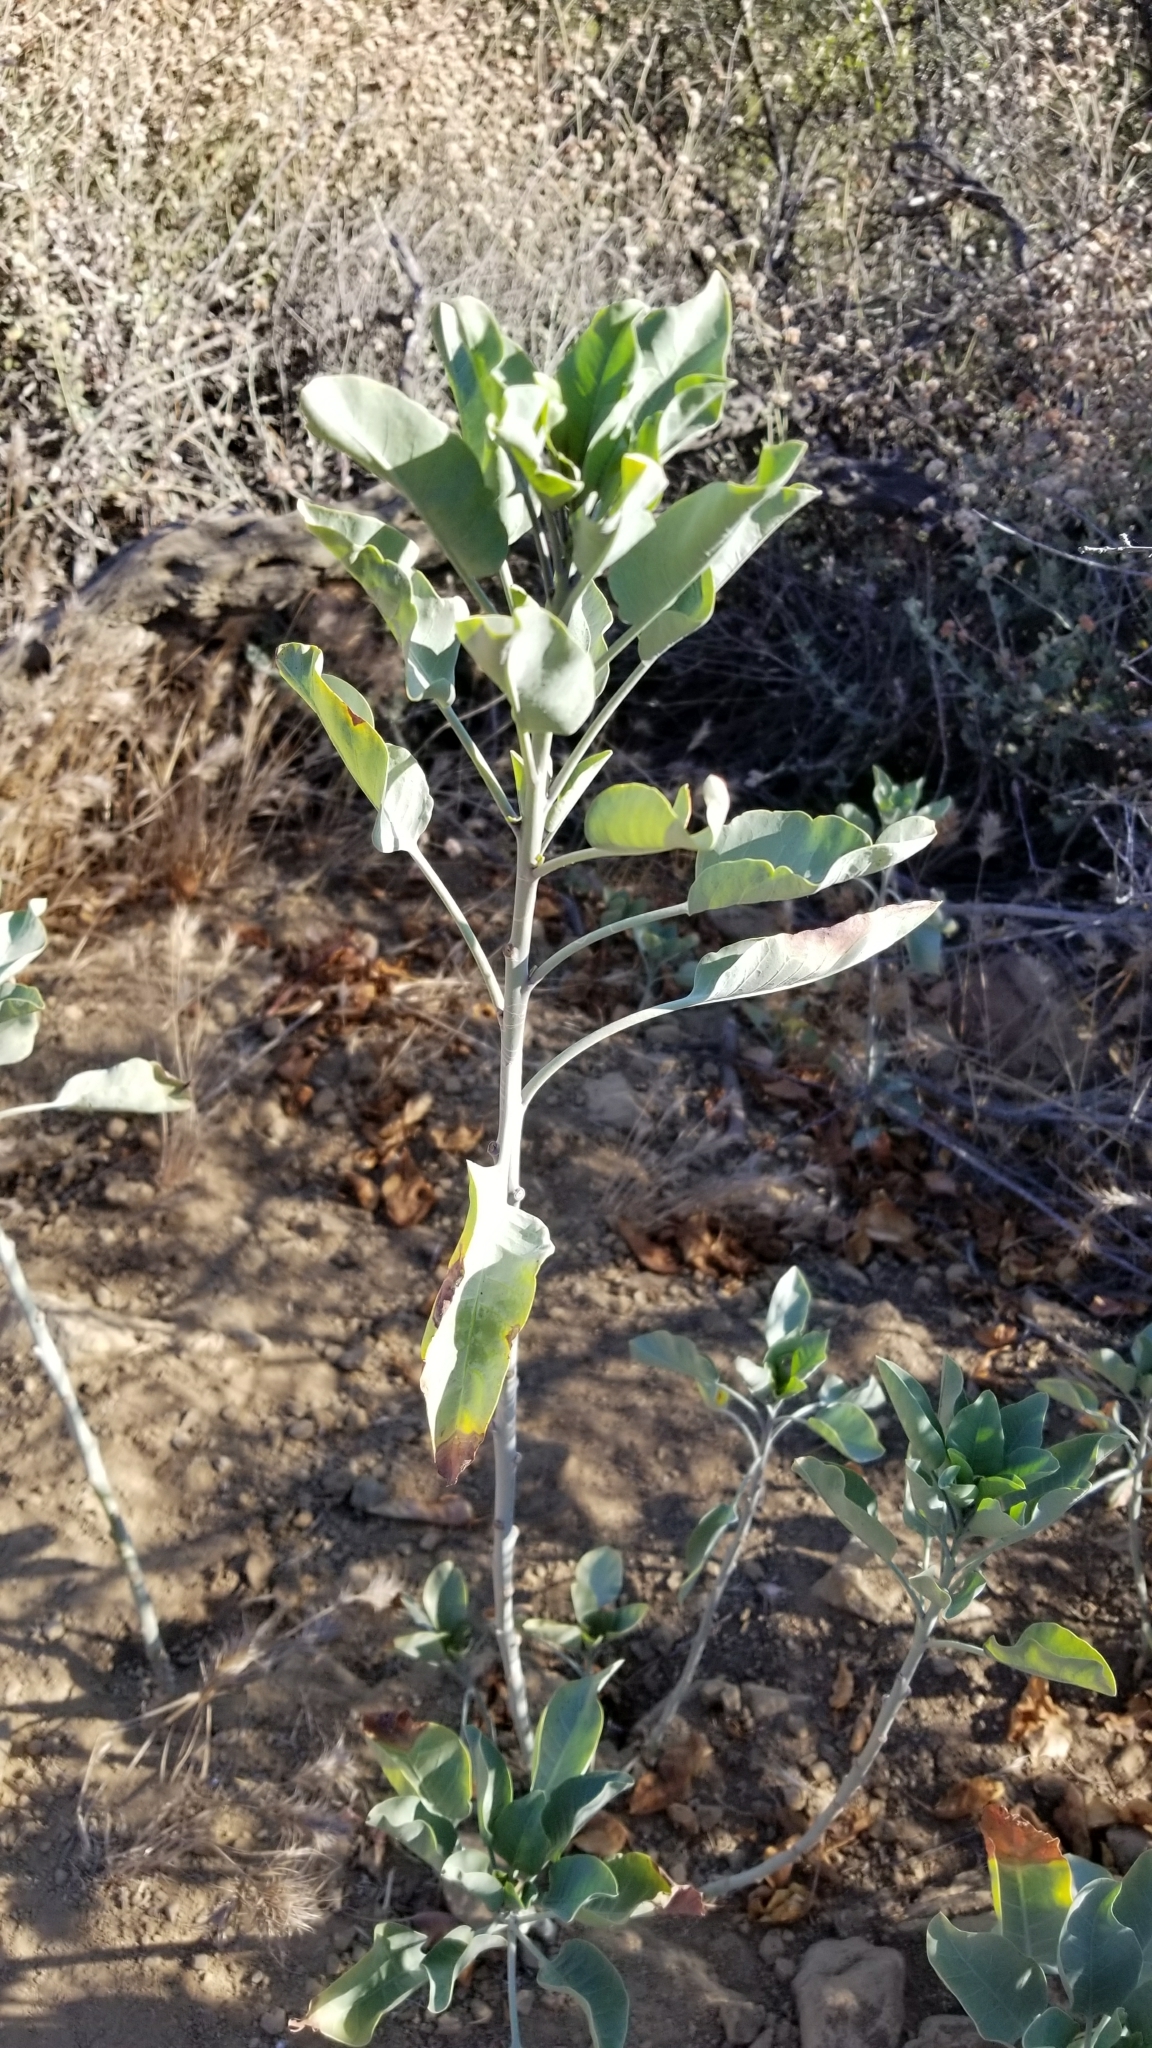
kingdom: Plantae
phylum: Tracheophyta
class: Magnoliopsida
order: Solanales
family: Solanaceae
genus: Nicotiana
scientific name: Nicotiana glauca
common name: Tree tobacco
